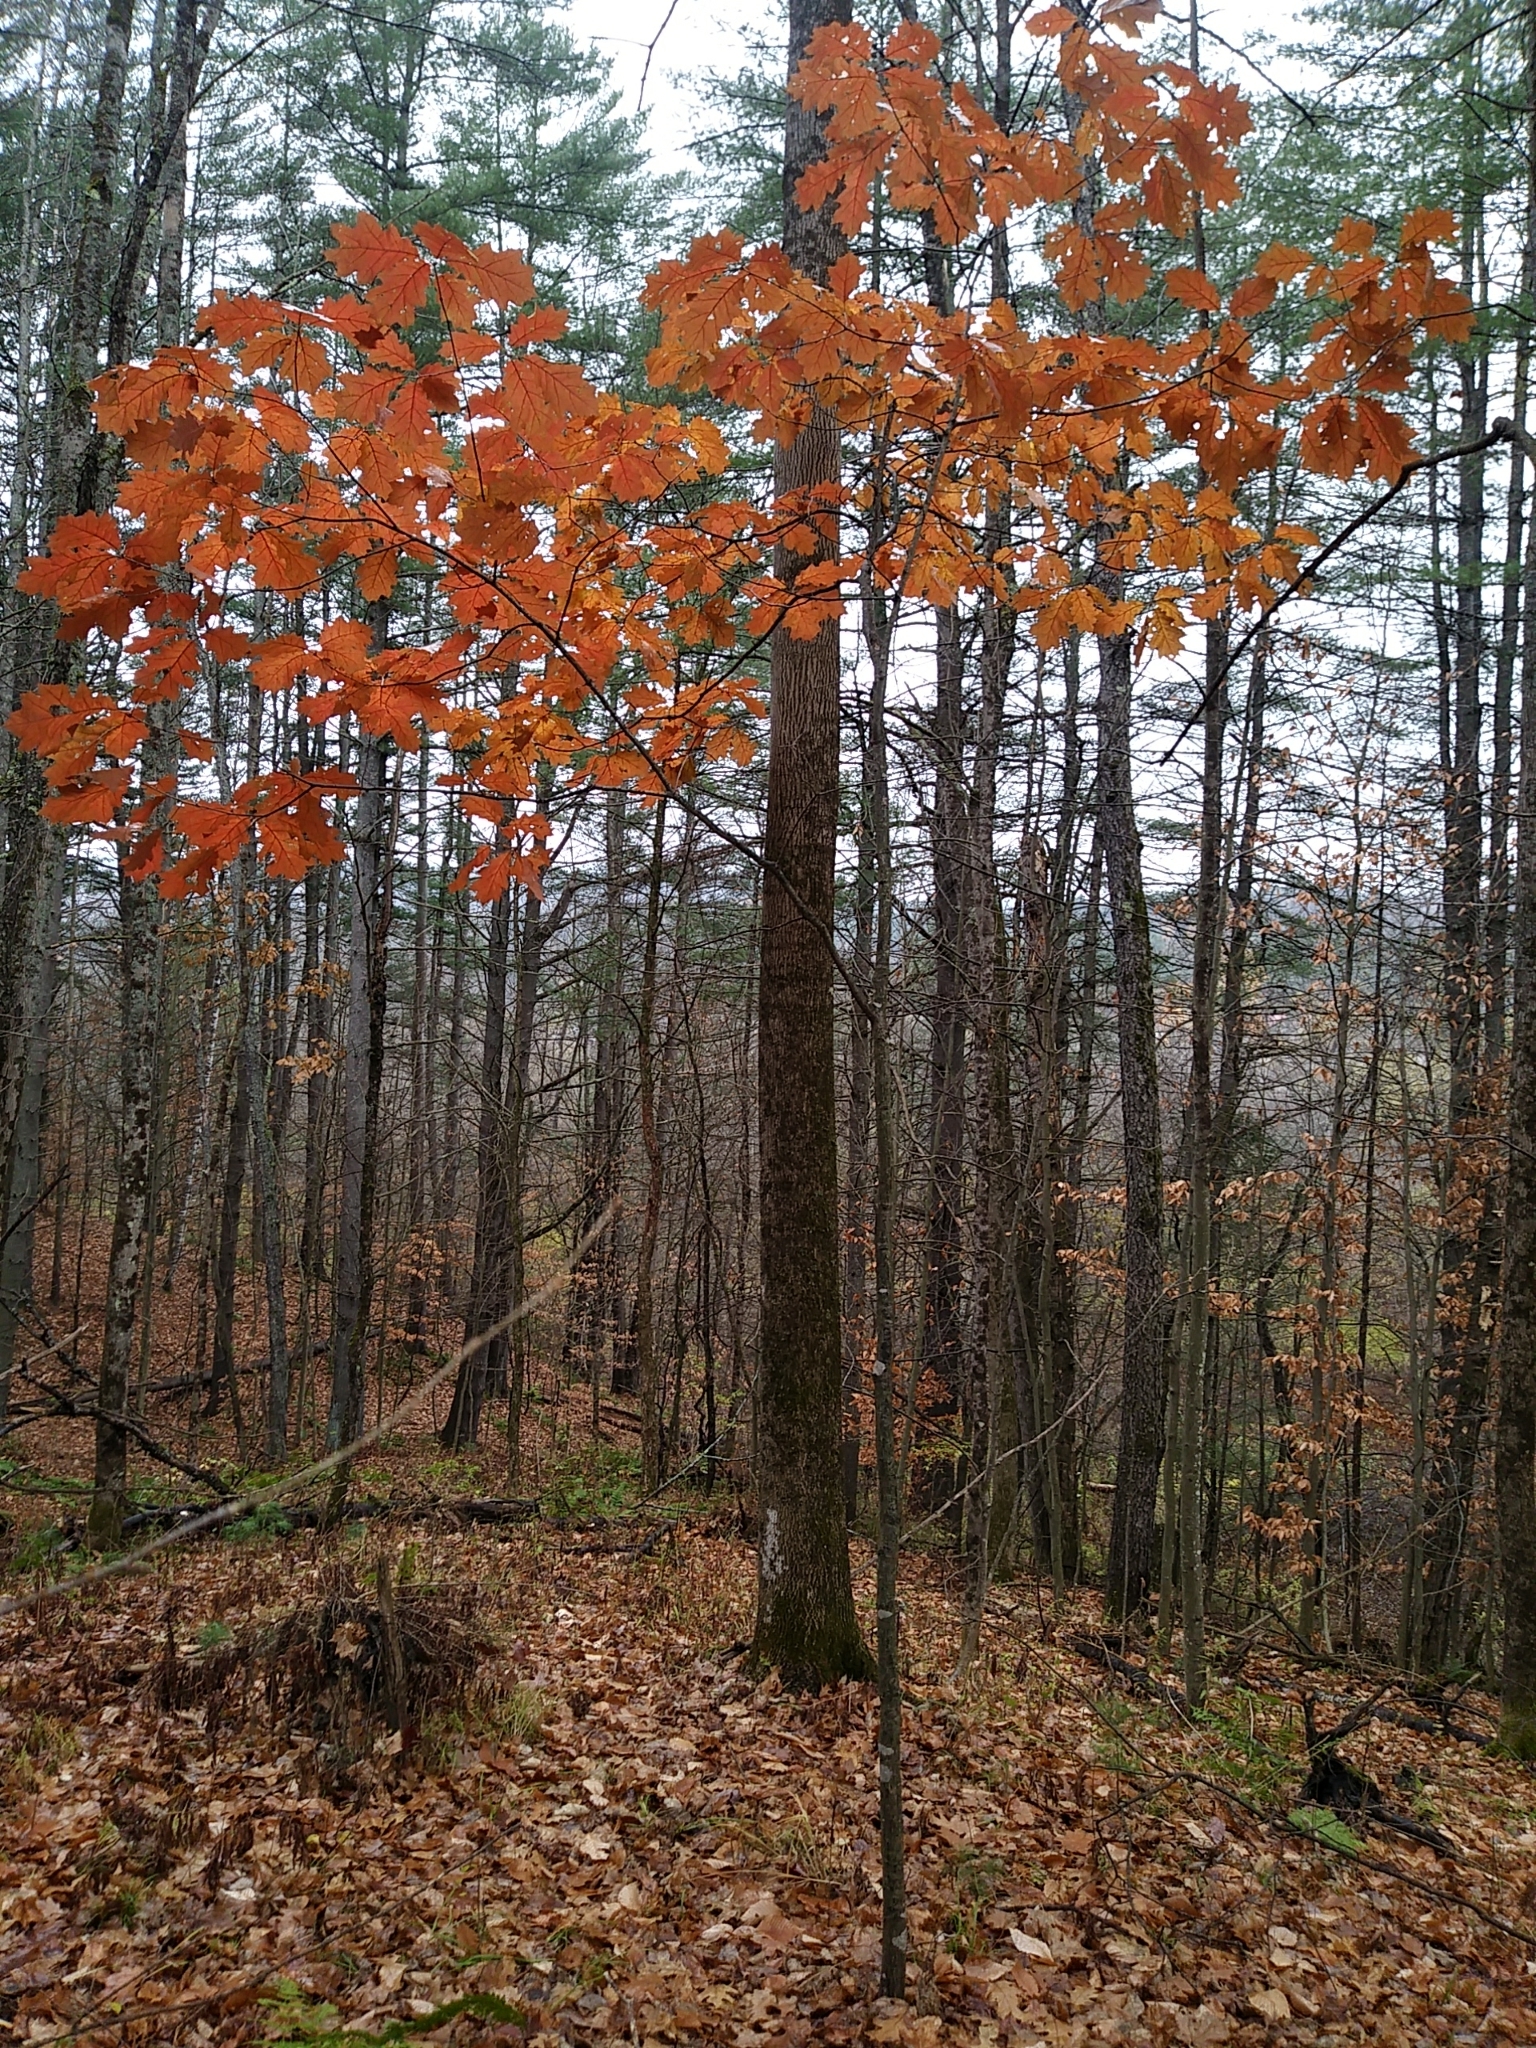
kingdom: Plantae
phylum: Tracheophyta
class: Magnoliopsida
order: Fagales
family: Fagaceae
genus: Quercus
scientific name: Quercus rubra
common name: Red oak
